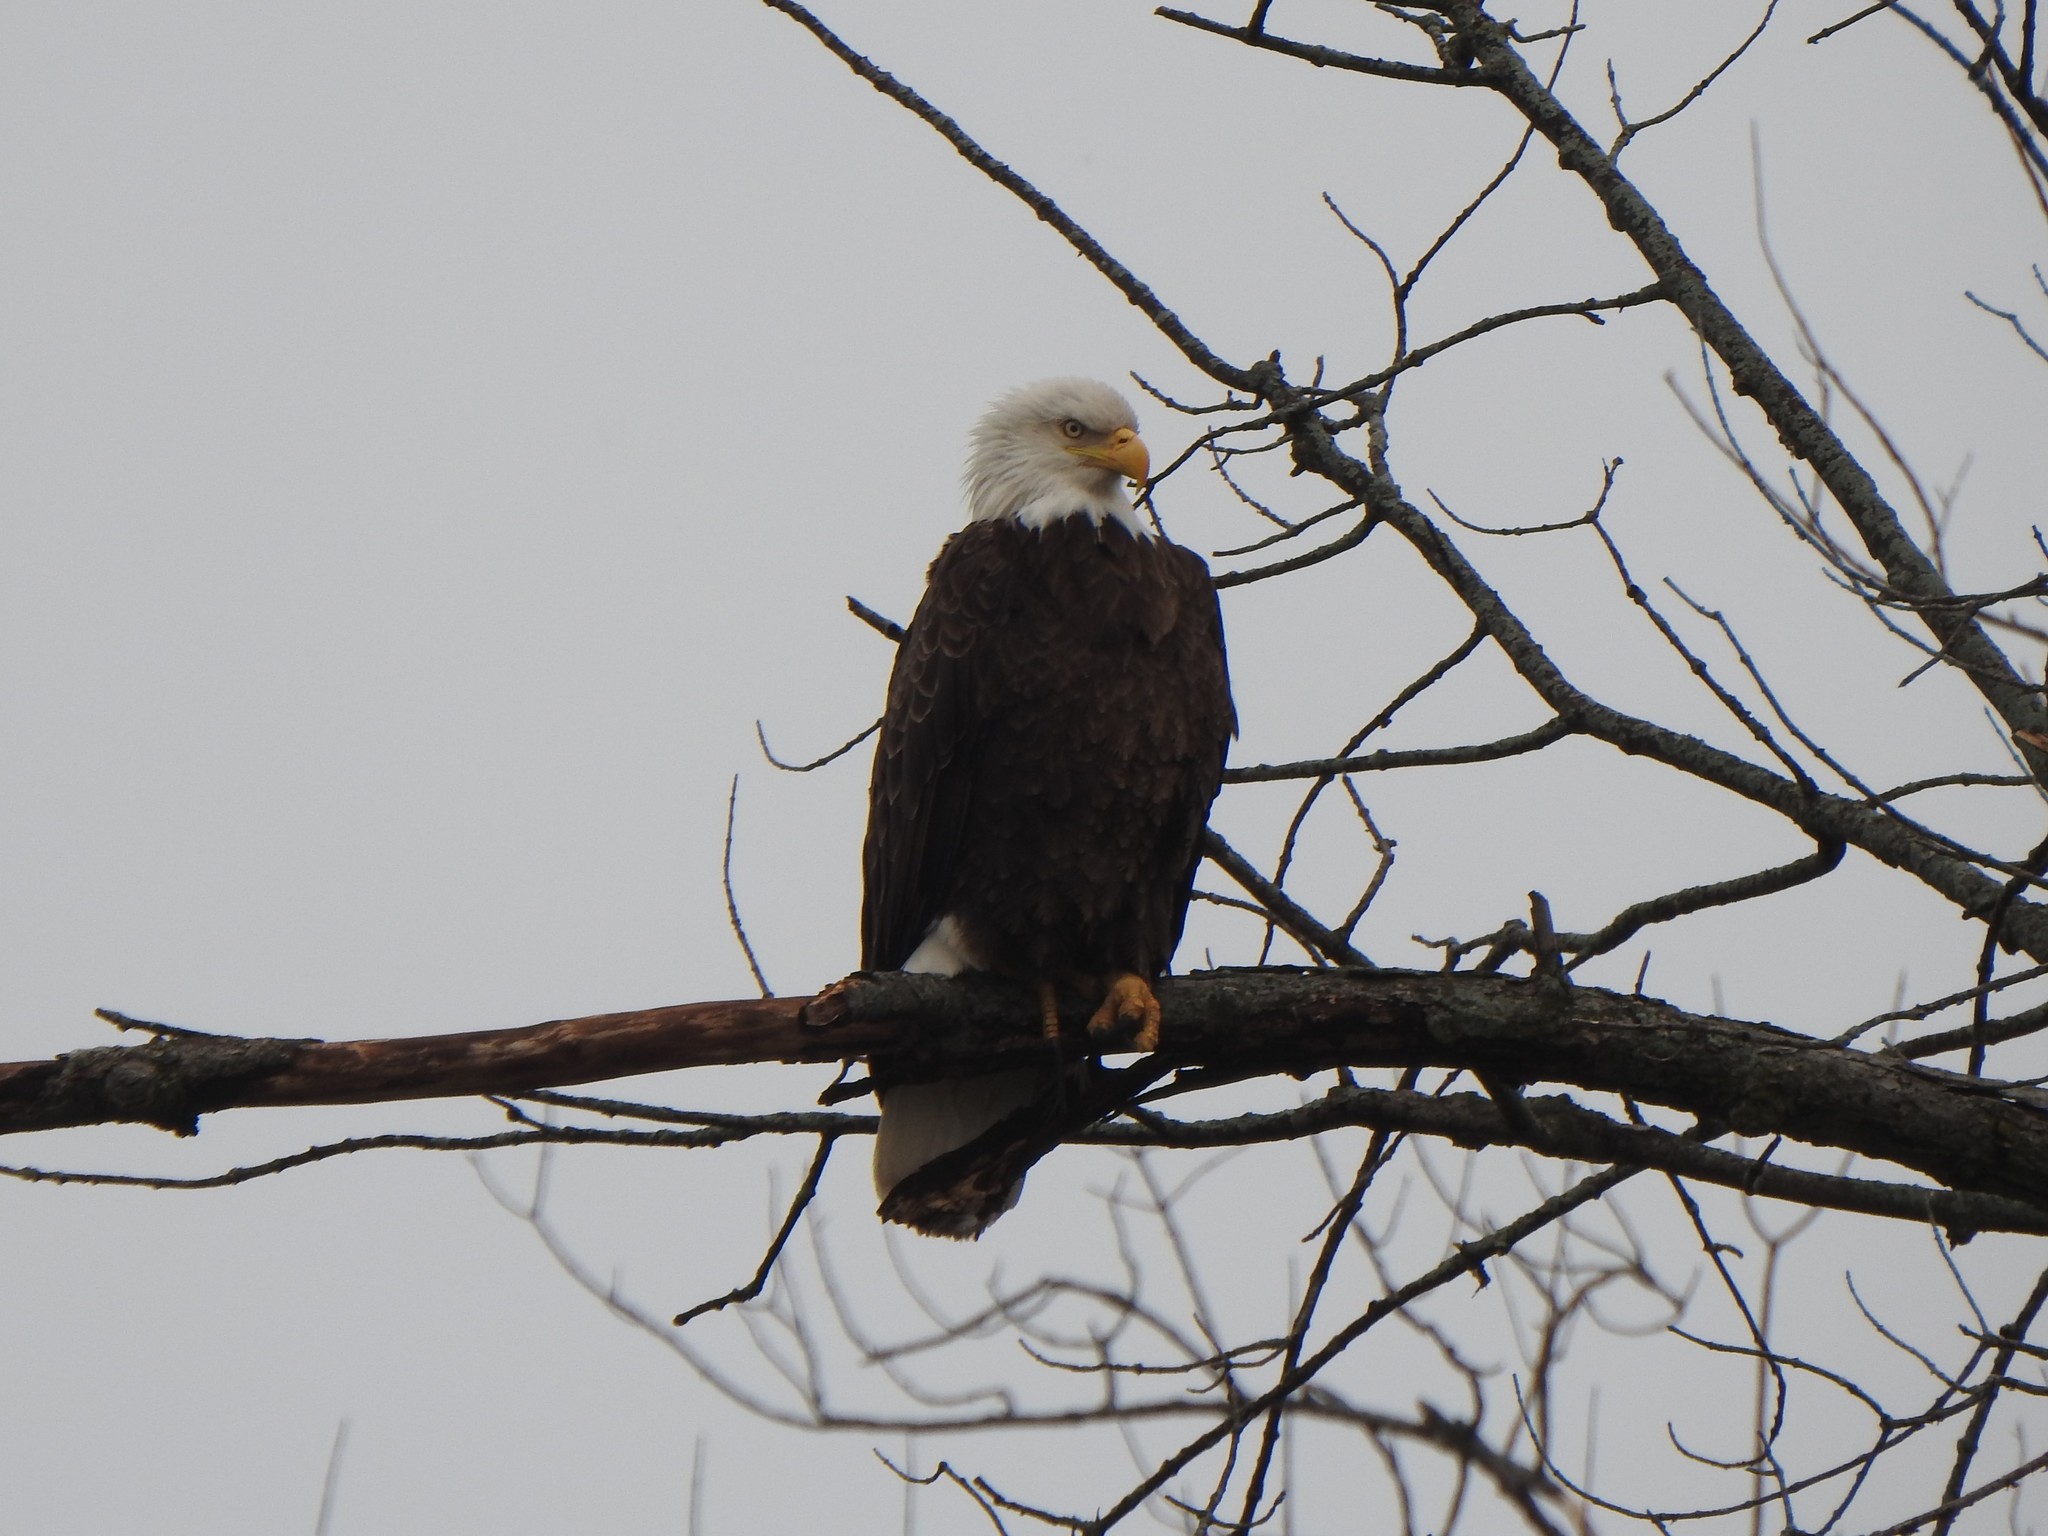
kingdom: Animalia
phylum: Chordata
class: Aves
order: Accipitriformes
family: Accipitridae
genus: Haliaeetus
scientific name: Haliaeetus leucocephalus
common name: Bald eagle
